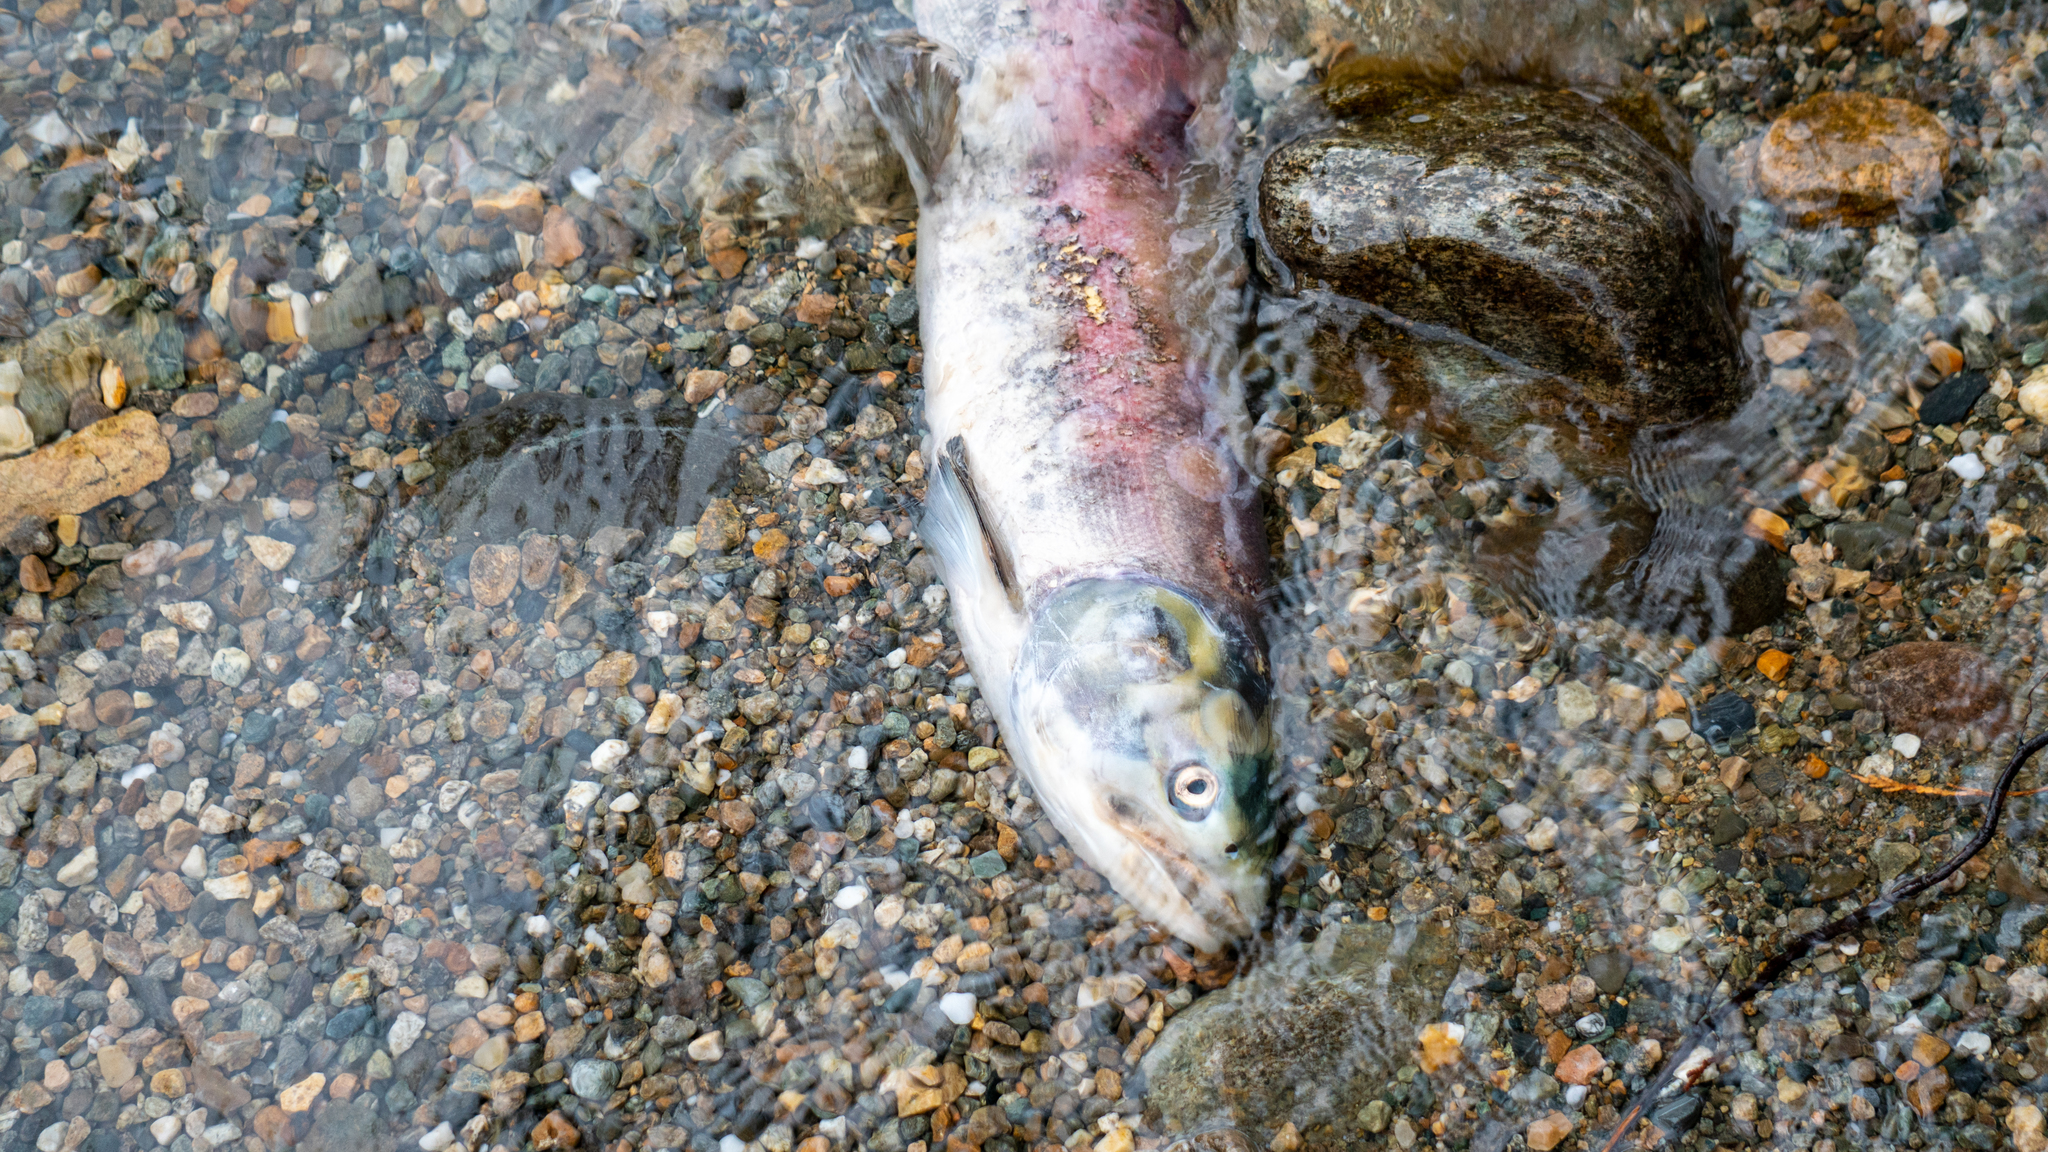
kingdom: Animalia
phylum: Chordata
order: Salmoniformes
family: Salmonidae
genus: Oncorhynchus
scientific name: Oncorhynchus nerka
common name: Sockeye salmon
